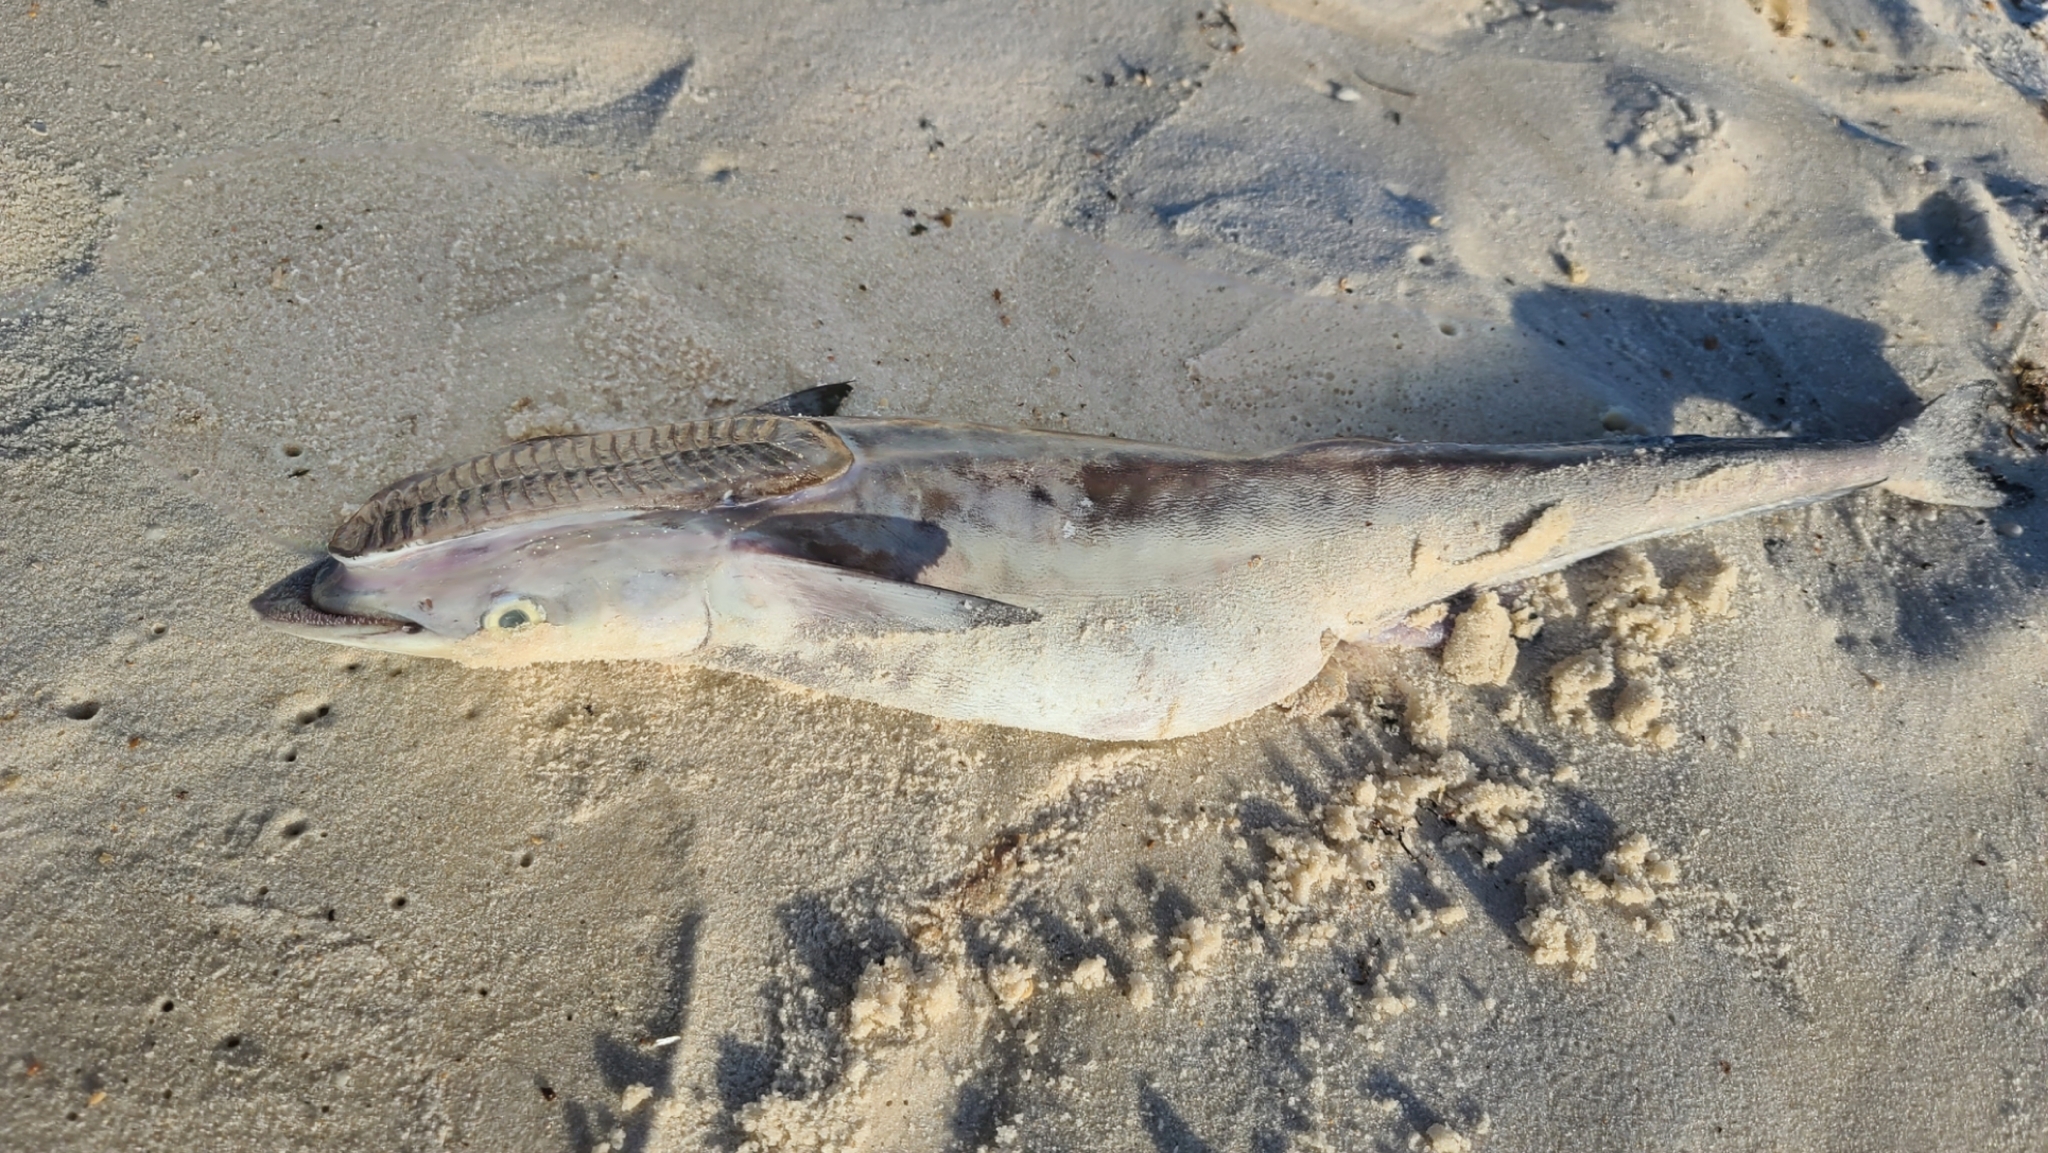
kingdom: Animalia
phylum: Chordata
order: Perciformes
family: Echeneidae
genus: Echeneis
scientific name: Echeneis naucrates
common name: Sharksucker
